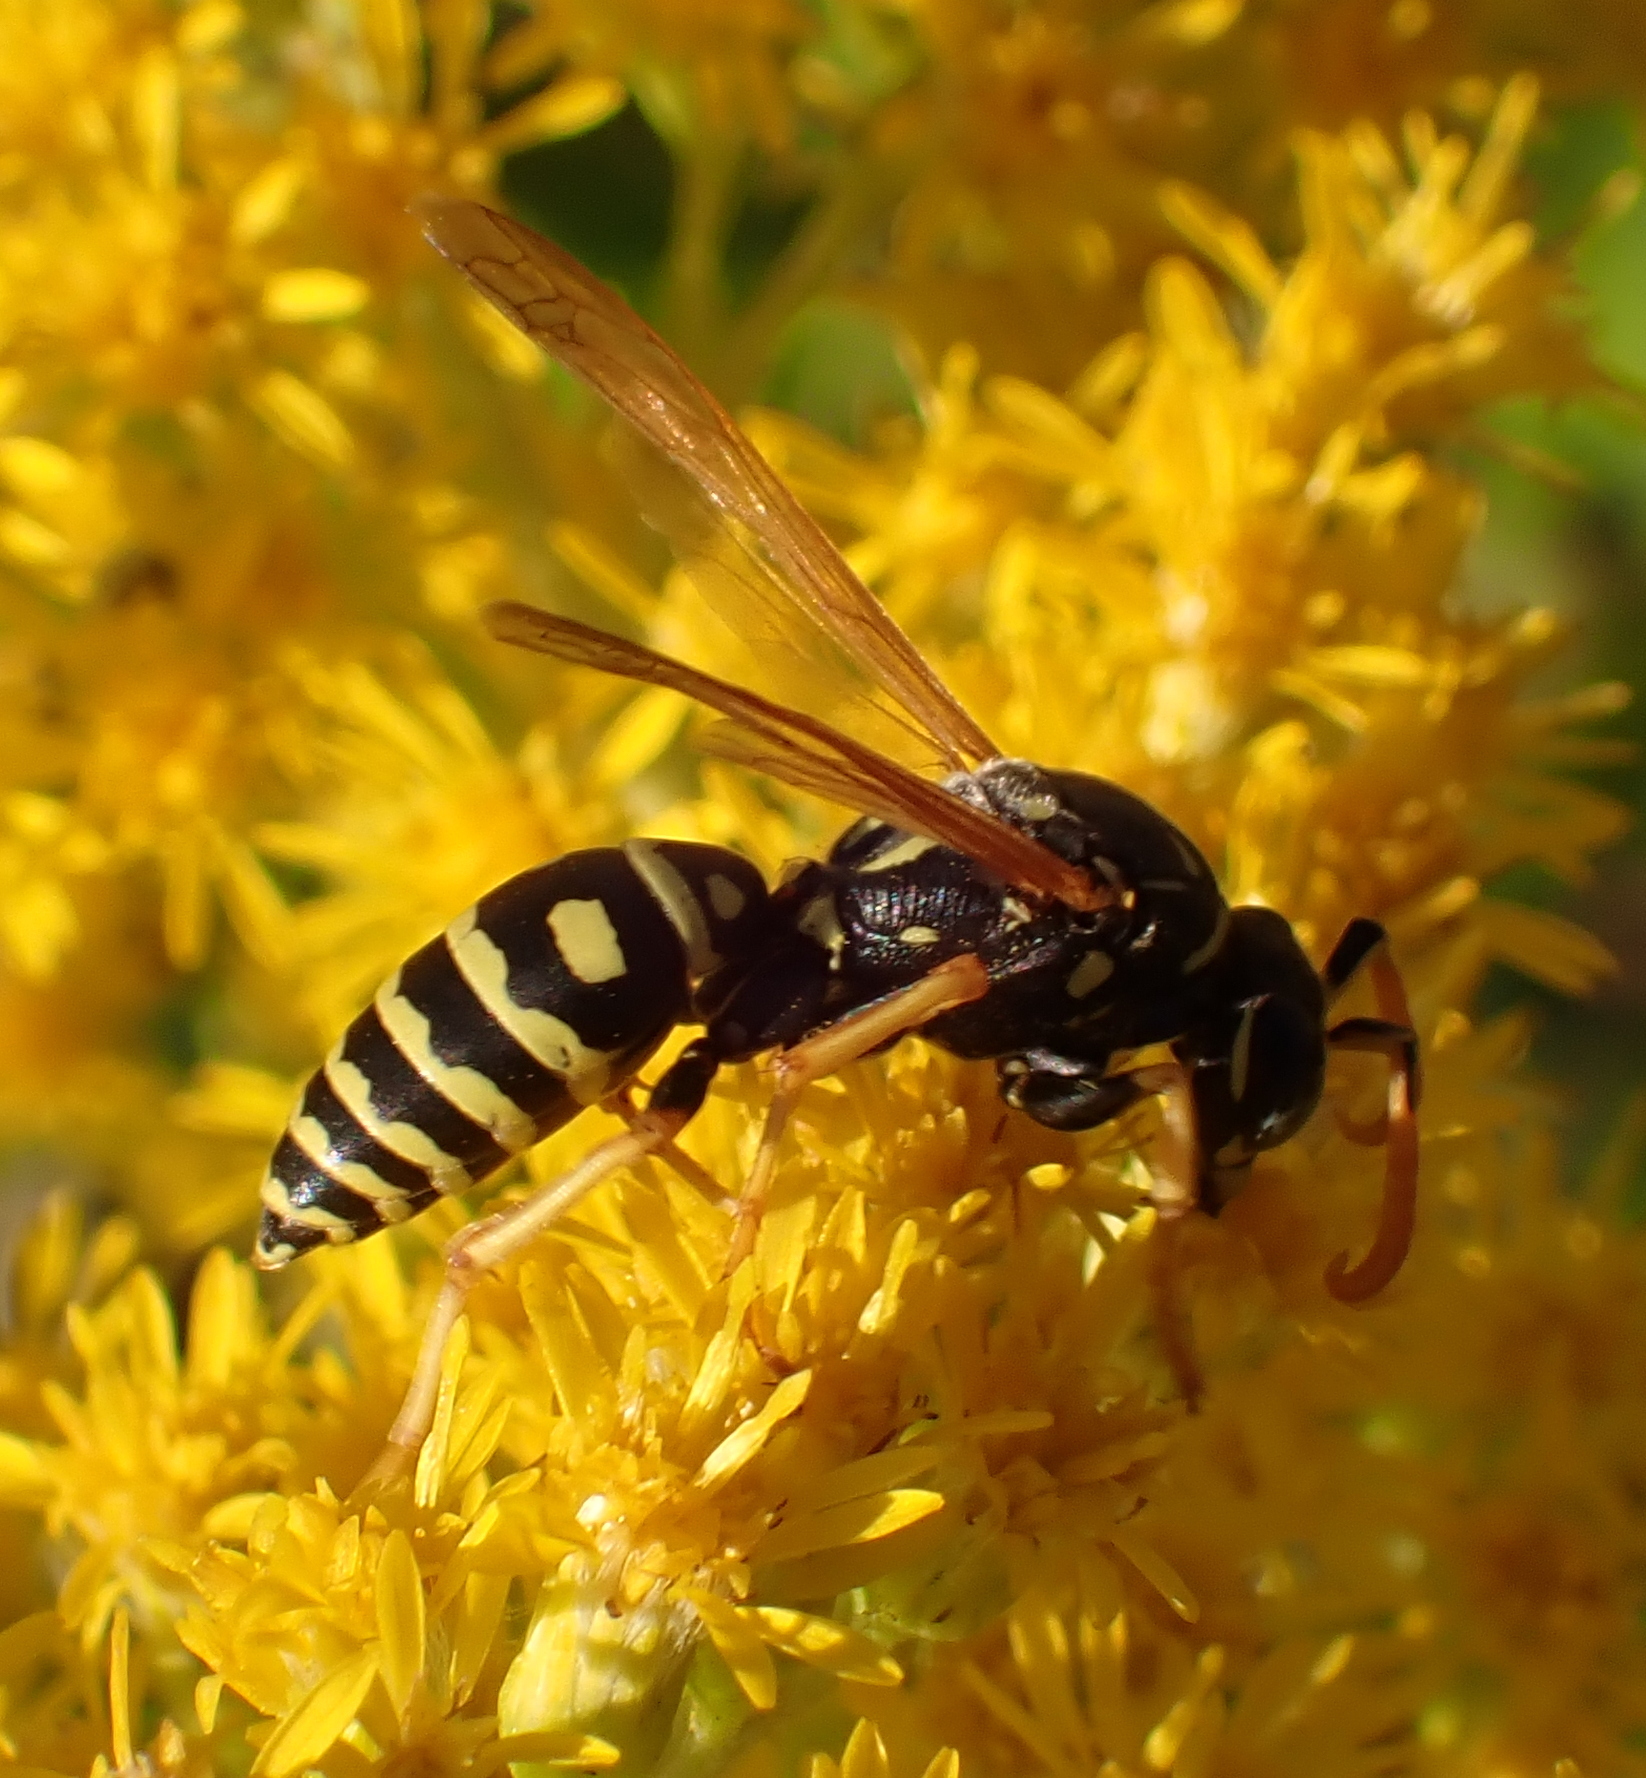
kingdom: Animalia
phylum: Arthropoda
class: Insecta
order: Hymenoptera
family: Eumenidae
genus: Polistes
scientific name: Polistes dominula
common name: Paper wasp
